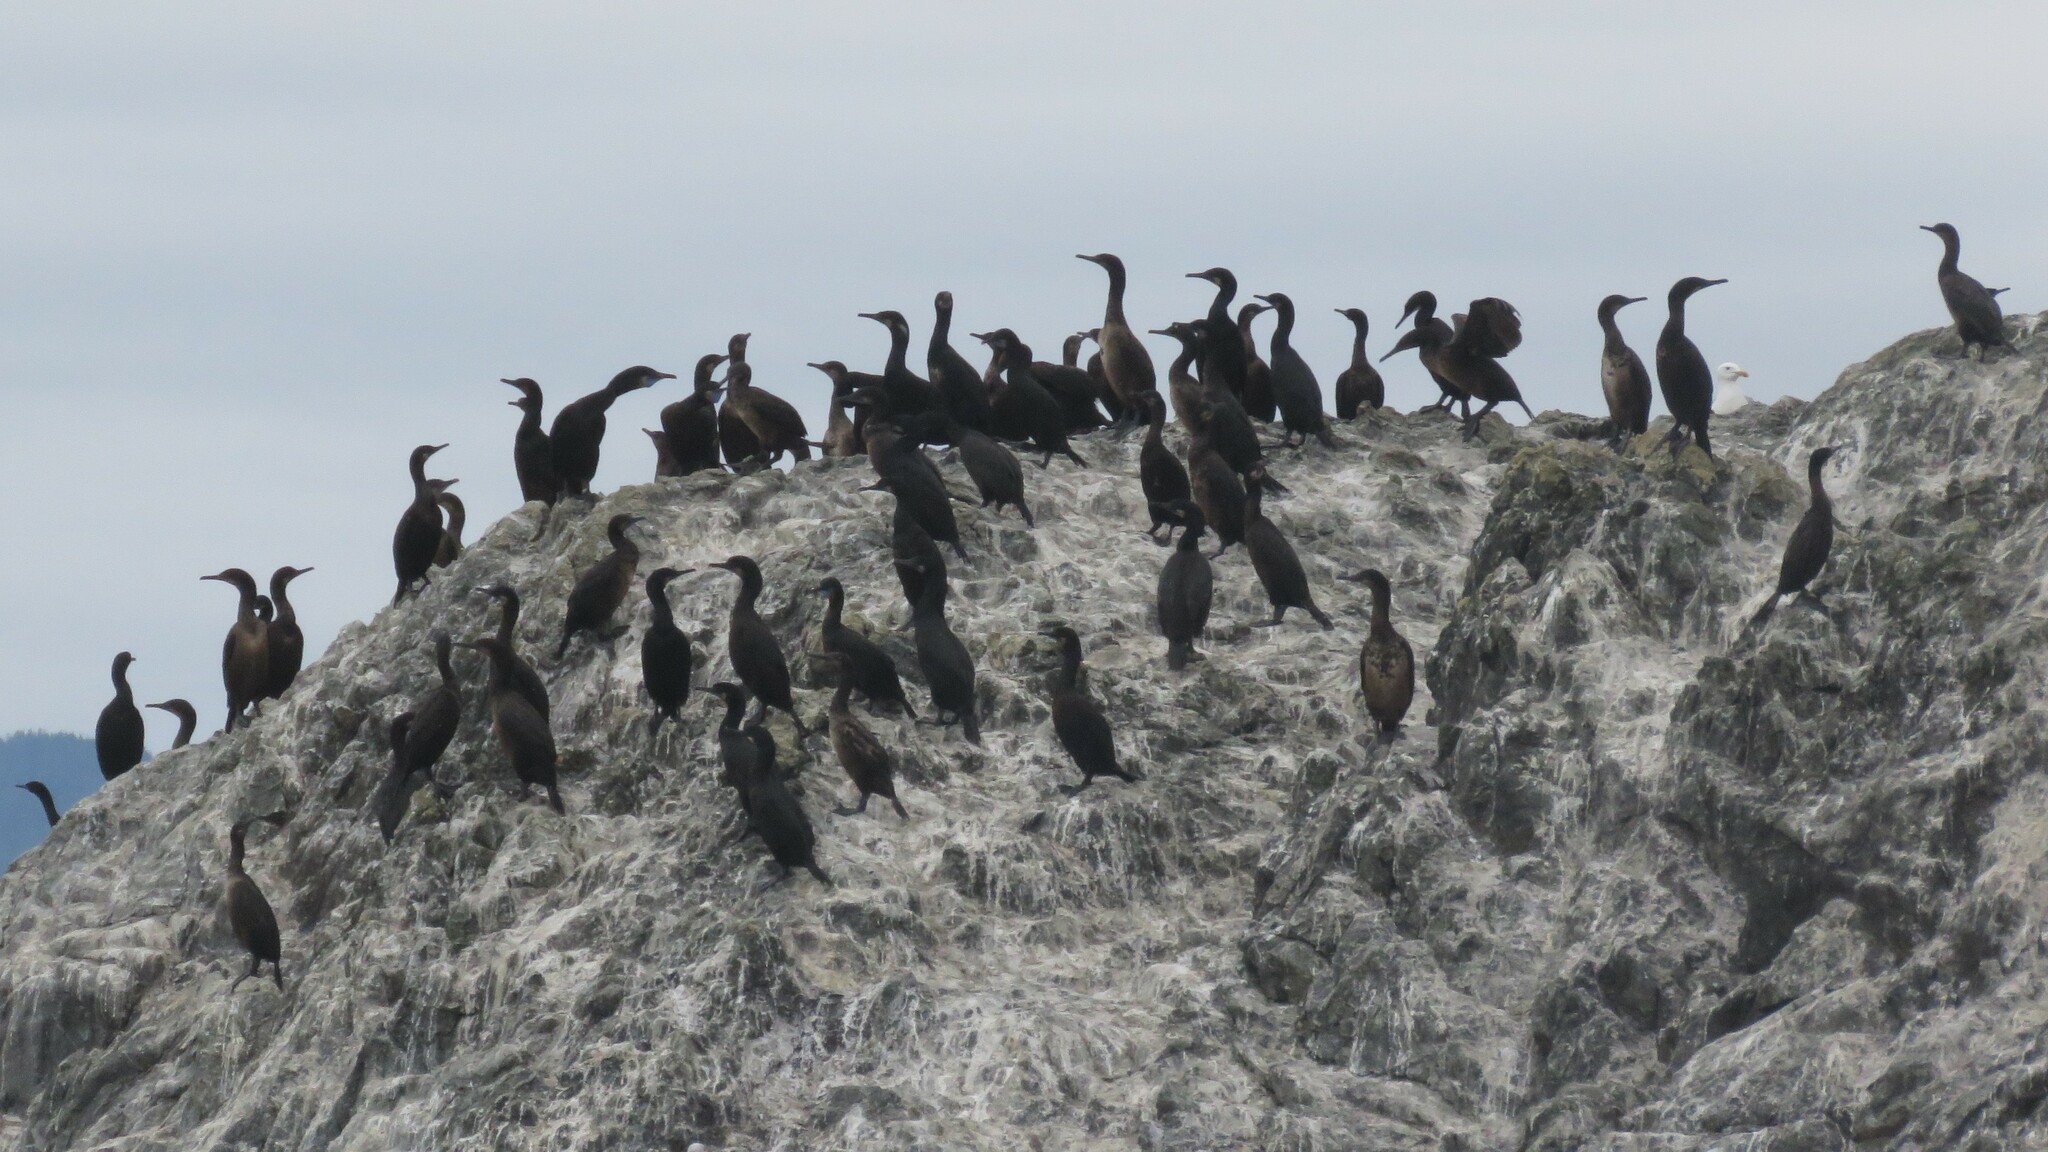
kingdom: Animalia
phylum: Chordata
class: Aves
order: Suliformes
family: Phalacrocoracidae
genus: Urile
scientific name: Urile penicillatus
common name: Brandt's cormorant
